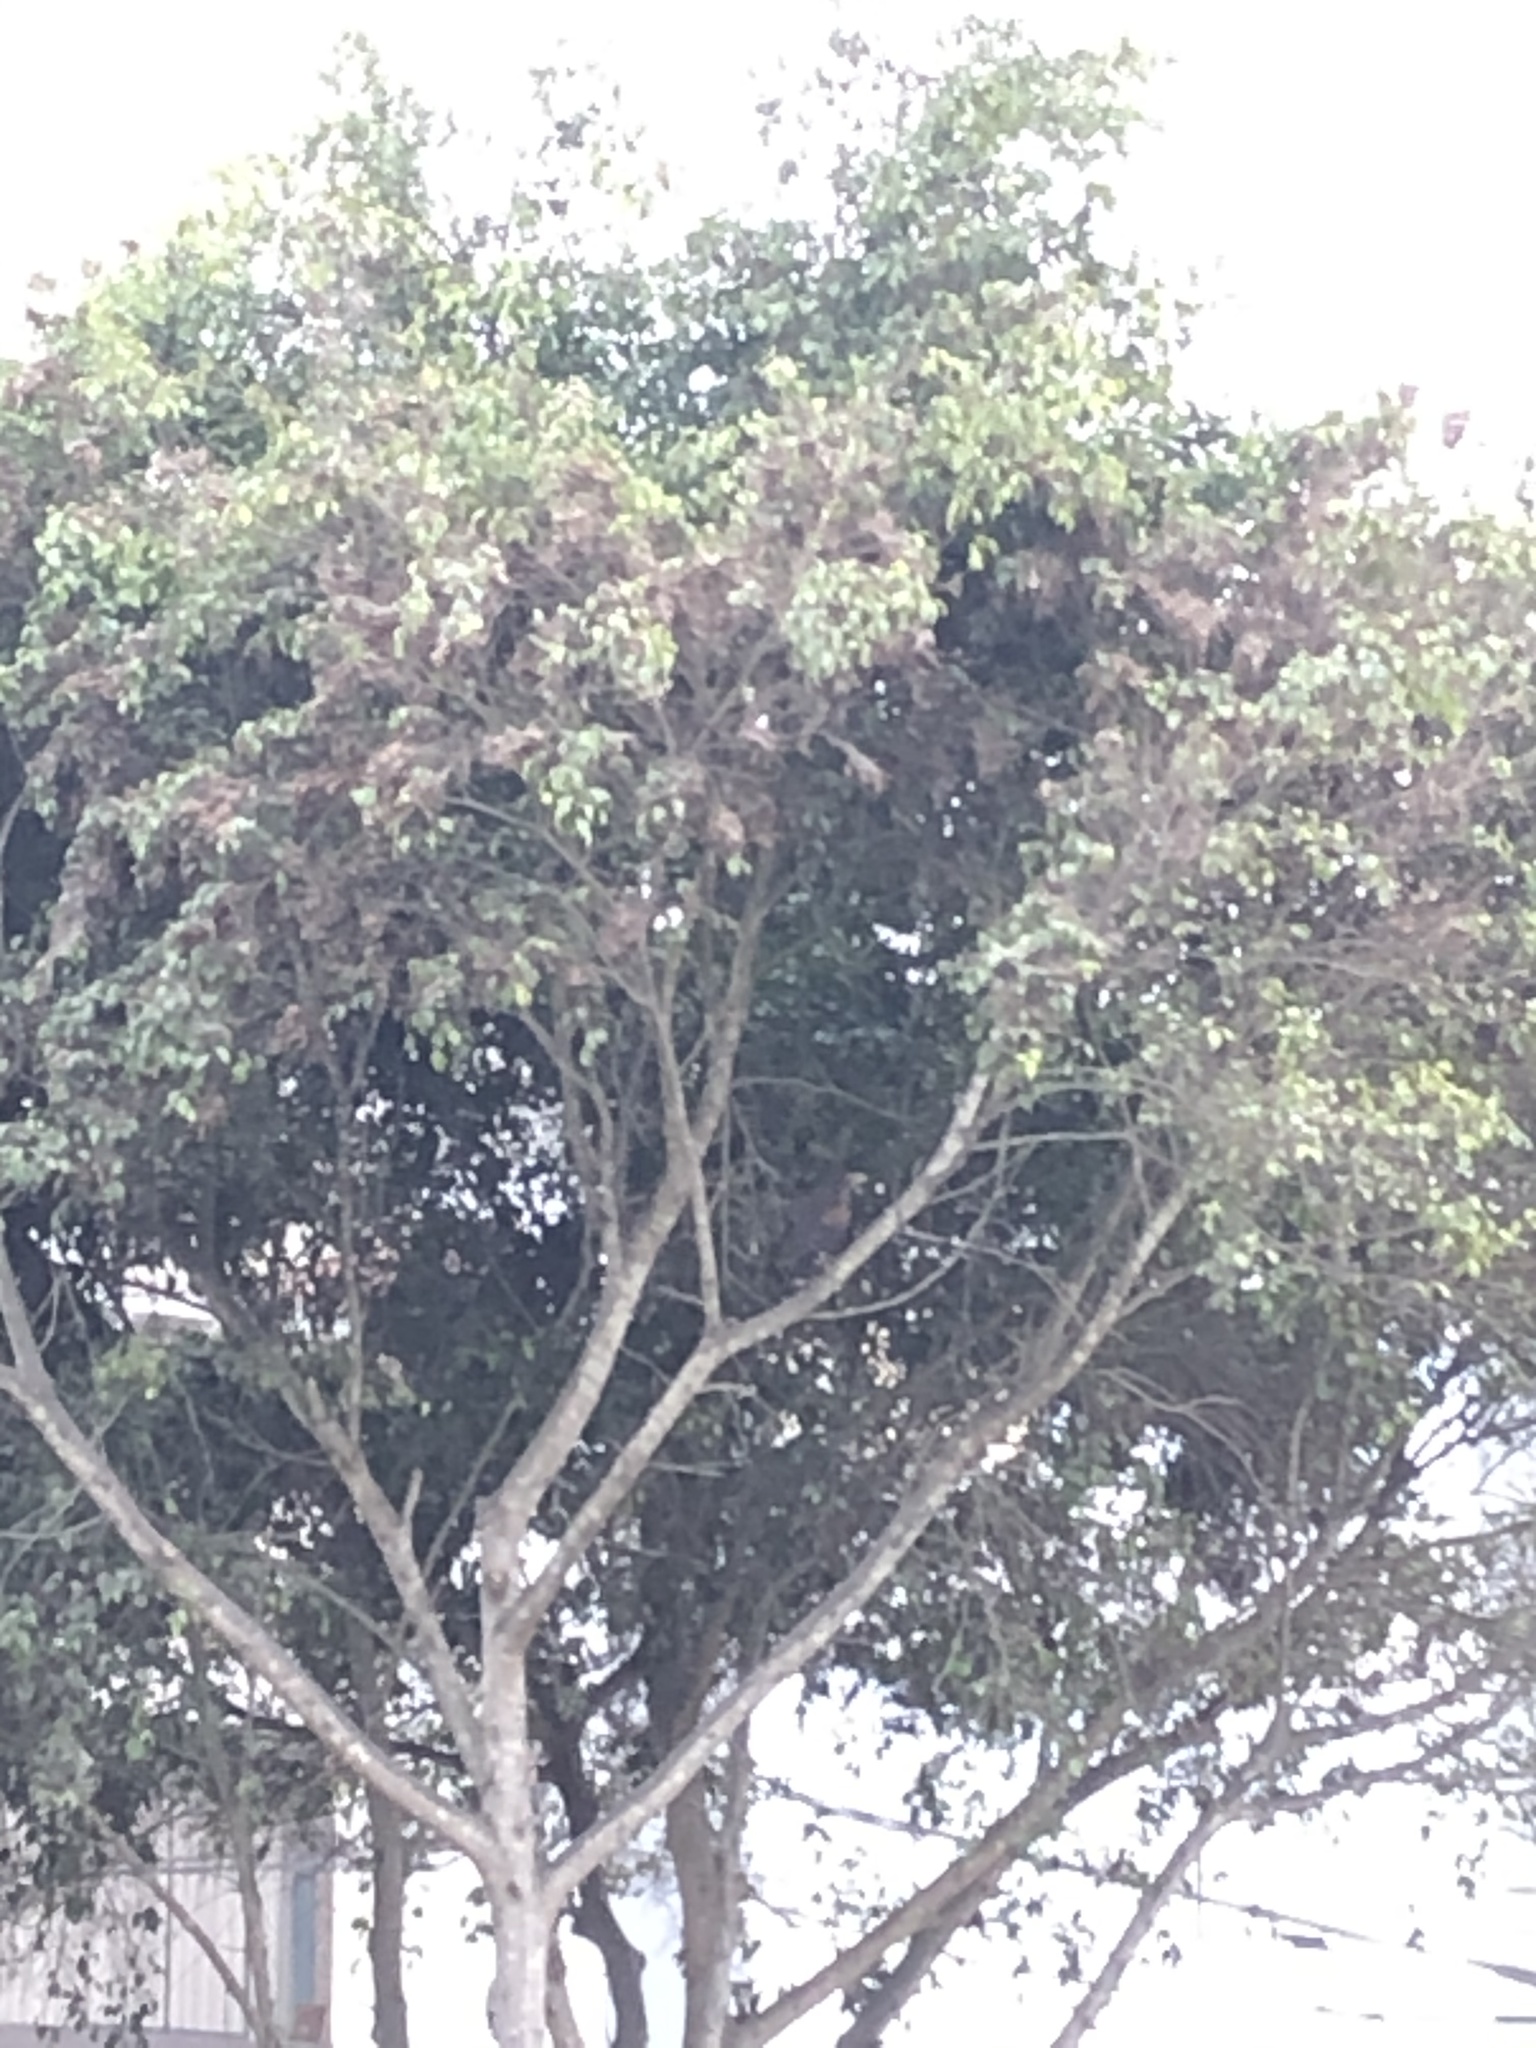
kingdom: Animalia
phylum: Chordata
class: Aves
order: Accipitriformes
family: Accipitridae
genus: Parabuteo
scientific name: Parabuteo unicinctus
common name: Harris's hawk
